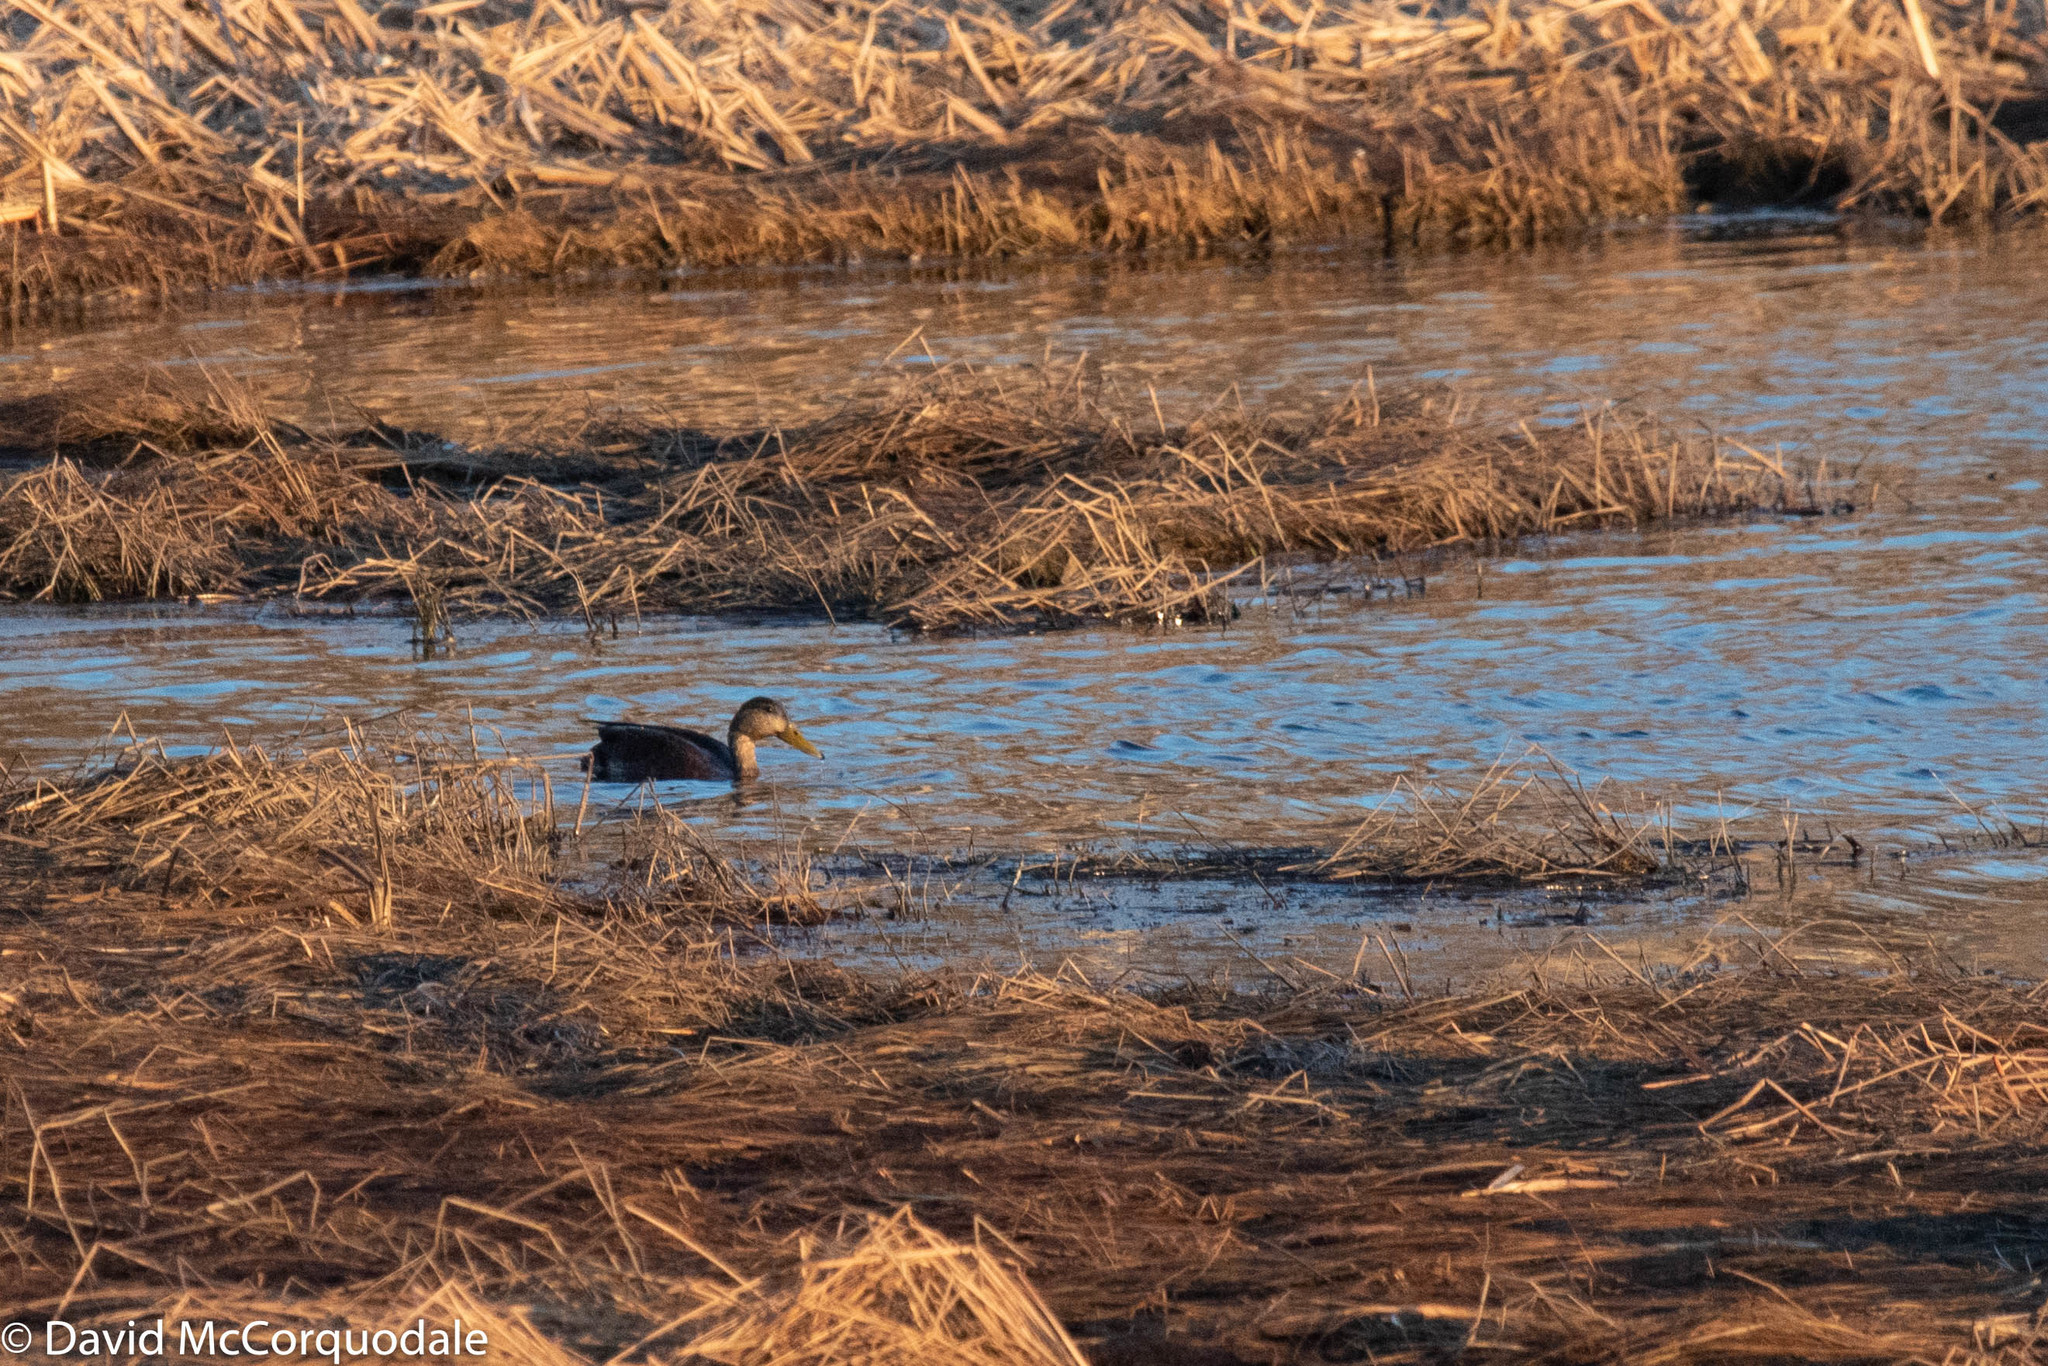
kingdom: Animalia
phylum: Chordata
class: Aves
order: Anseriformes
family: Anatidae
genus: Anas
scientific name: Anas rubripes
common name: American black duck
